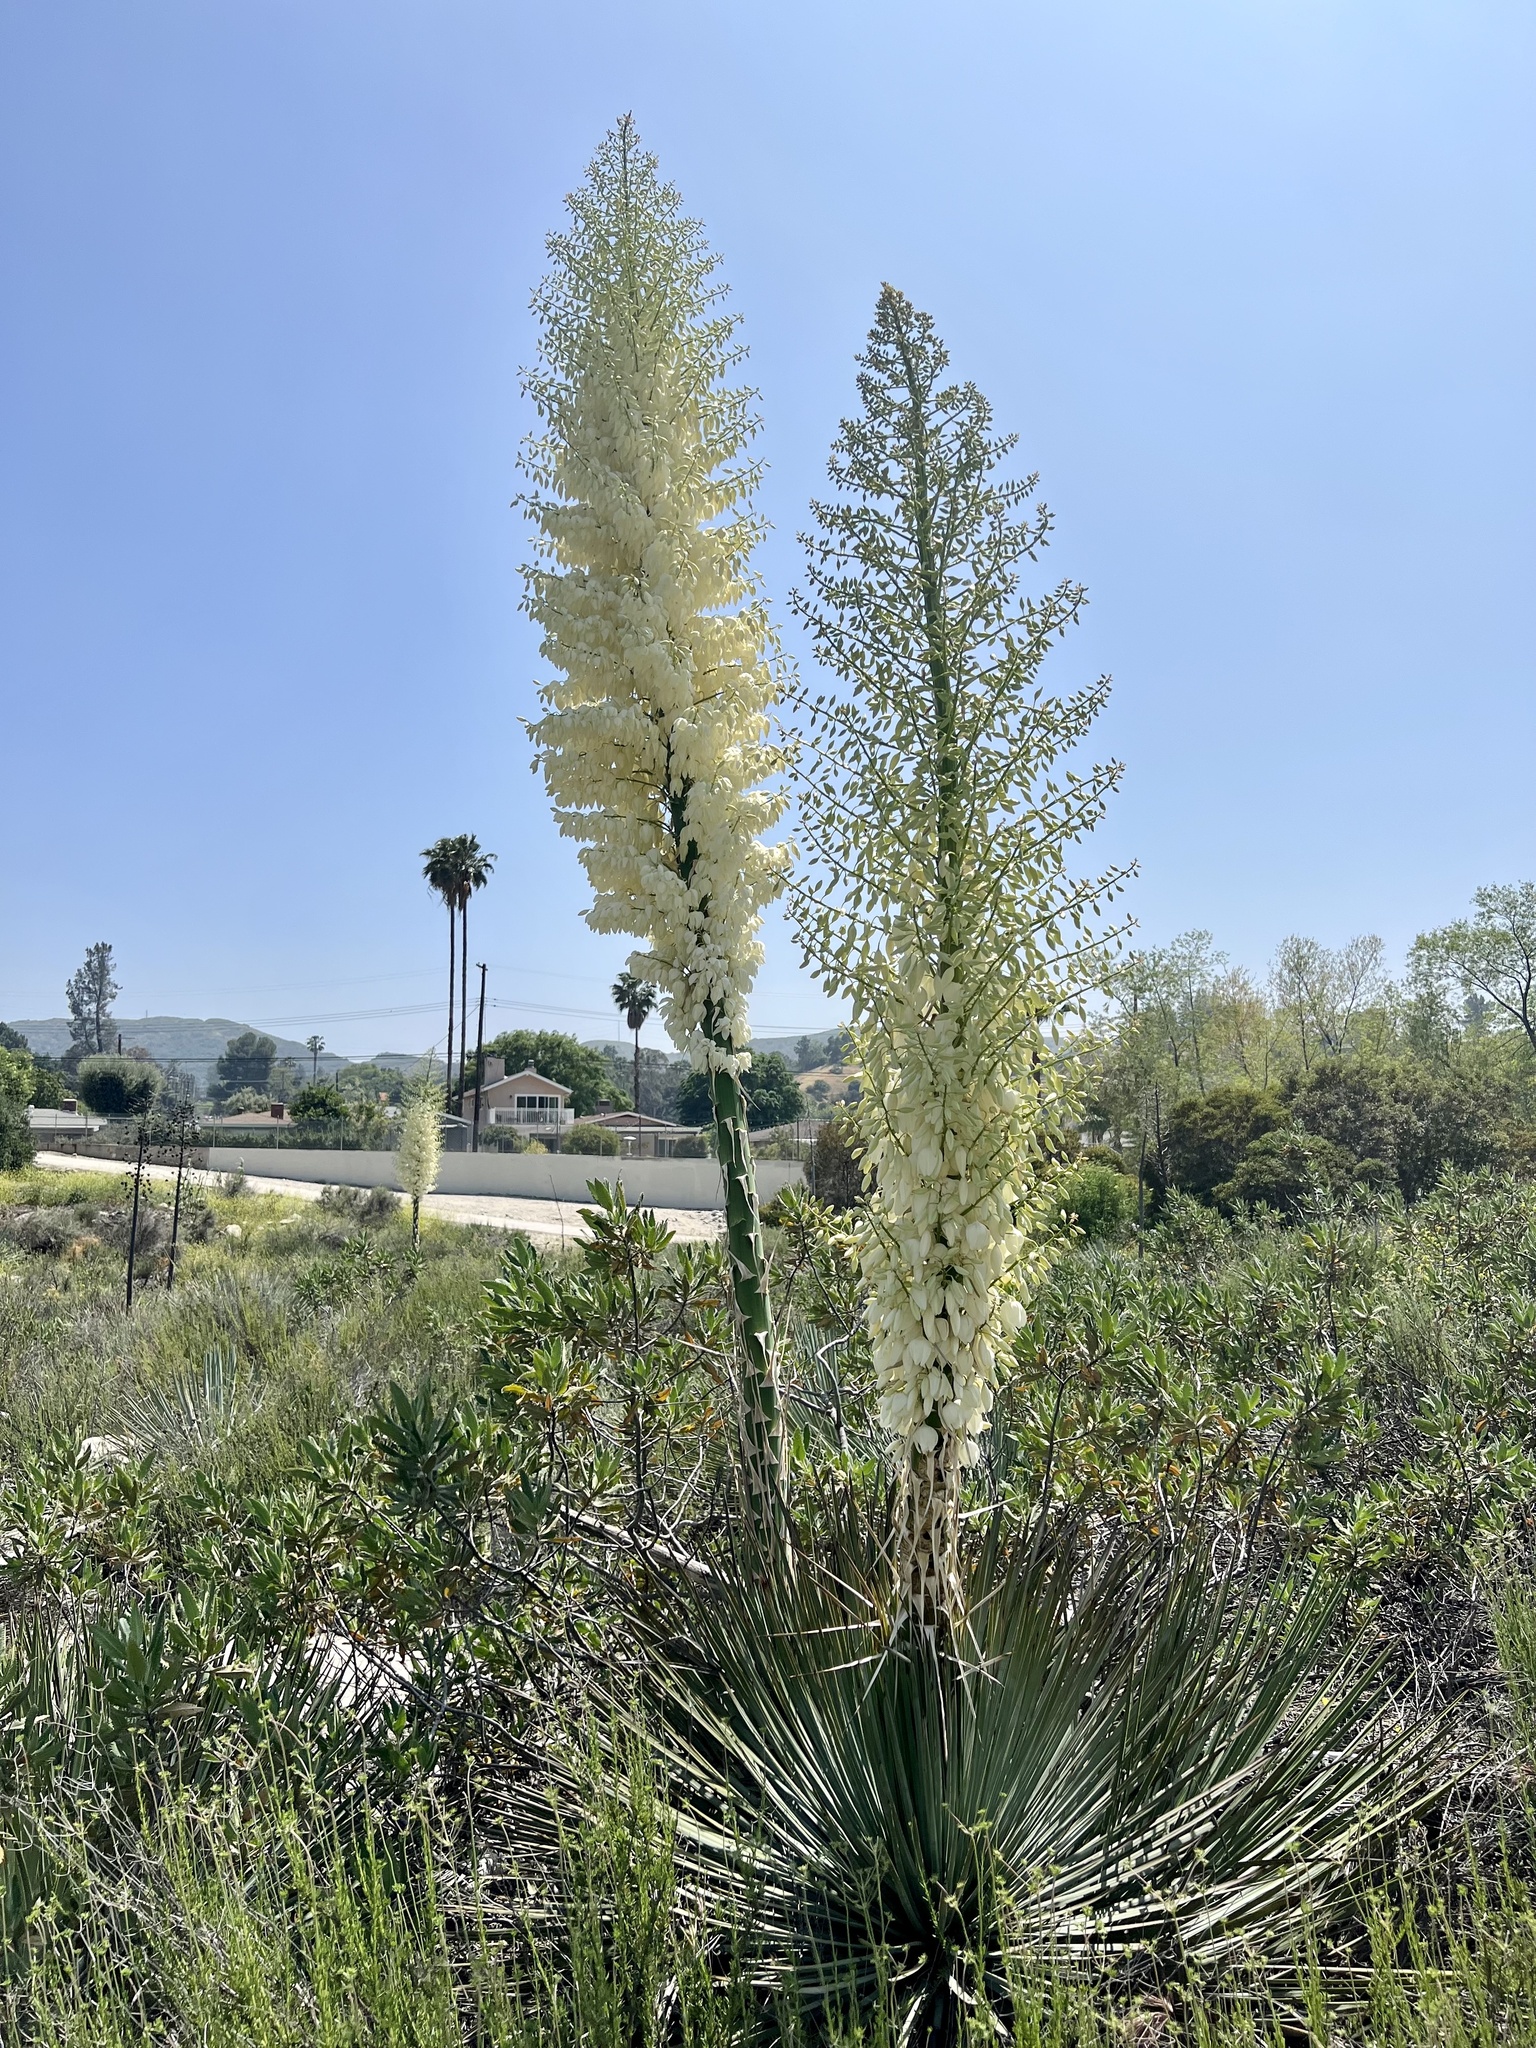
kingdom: Plantae
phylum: Tracheophyta
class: Liliopsida
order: Asparagales
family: Asparagaceae
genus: Hesperoyucca
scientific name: Hesperoyucca whipplei
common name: Our lord's-candle
